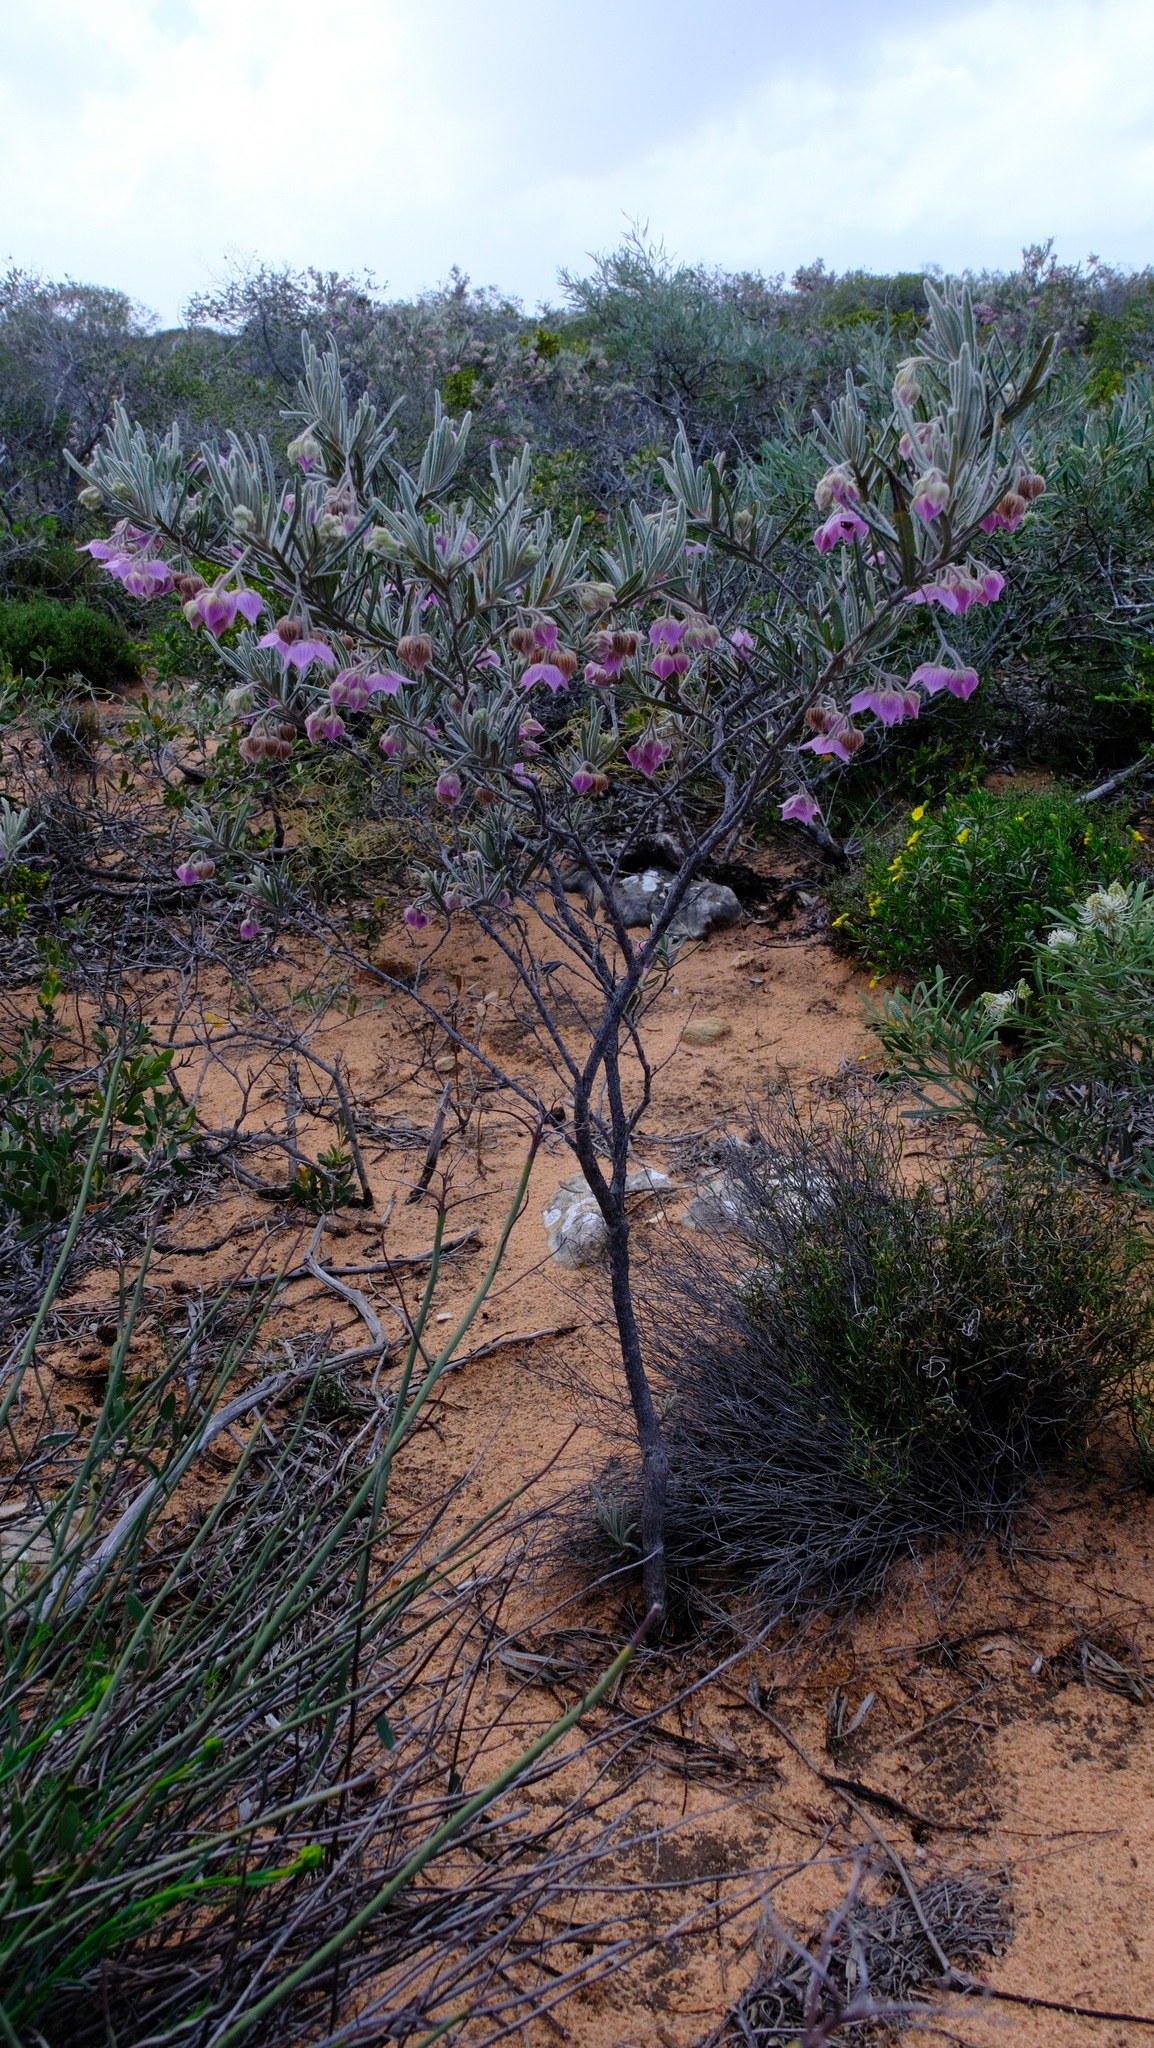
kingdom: Plantae
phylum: Tracheophyta
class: Magnoliopsida
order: Malvales
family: Malvaceae
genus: Guichenotia
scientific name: Guichenotia macrantha
